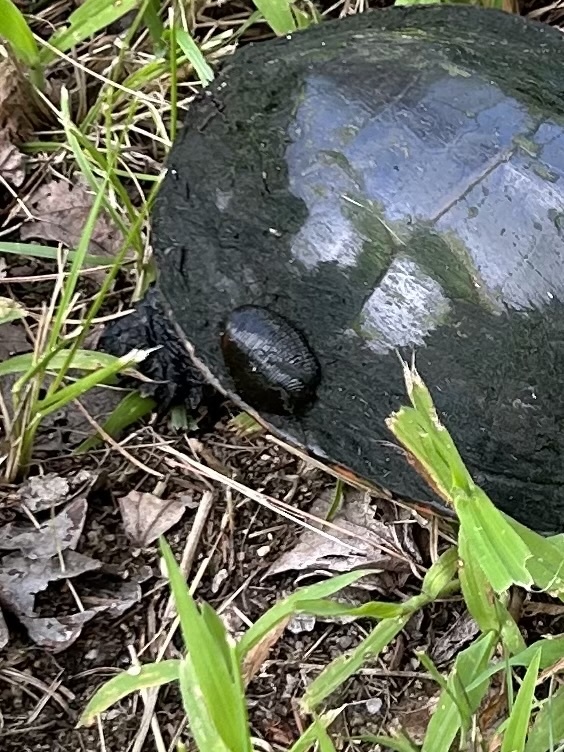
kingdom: Animalia
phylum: Annelida
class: Clitellata
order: Rhynchobdellida
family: Glossiphoniidae
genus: Placobdella
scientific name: Placobdella parasitica
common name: Smooth turtle leech
